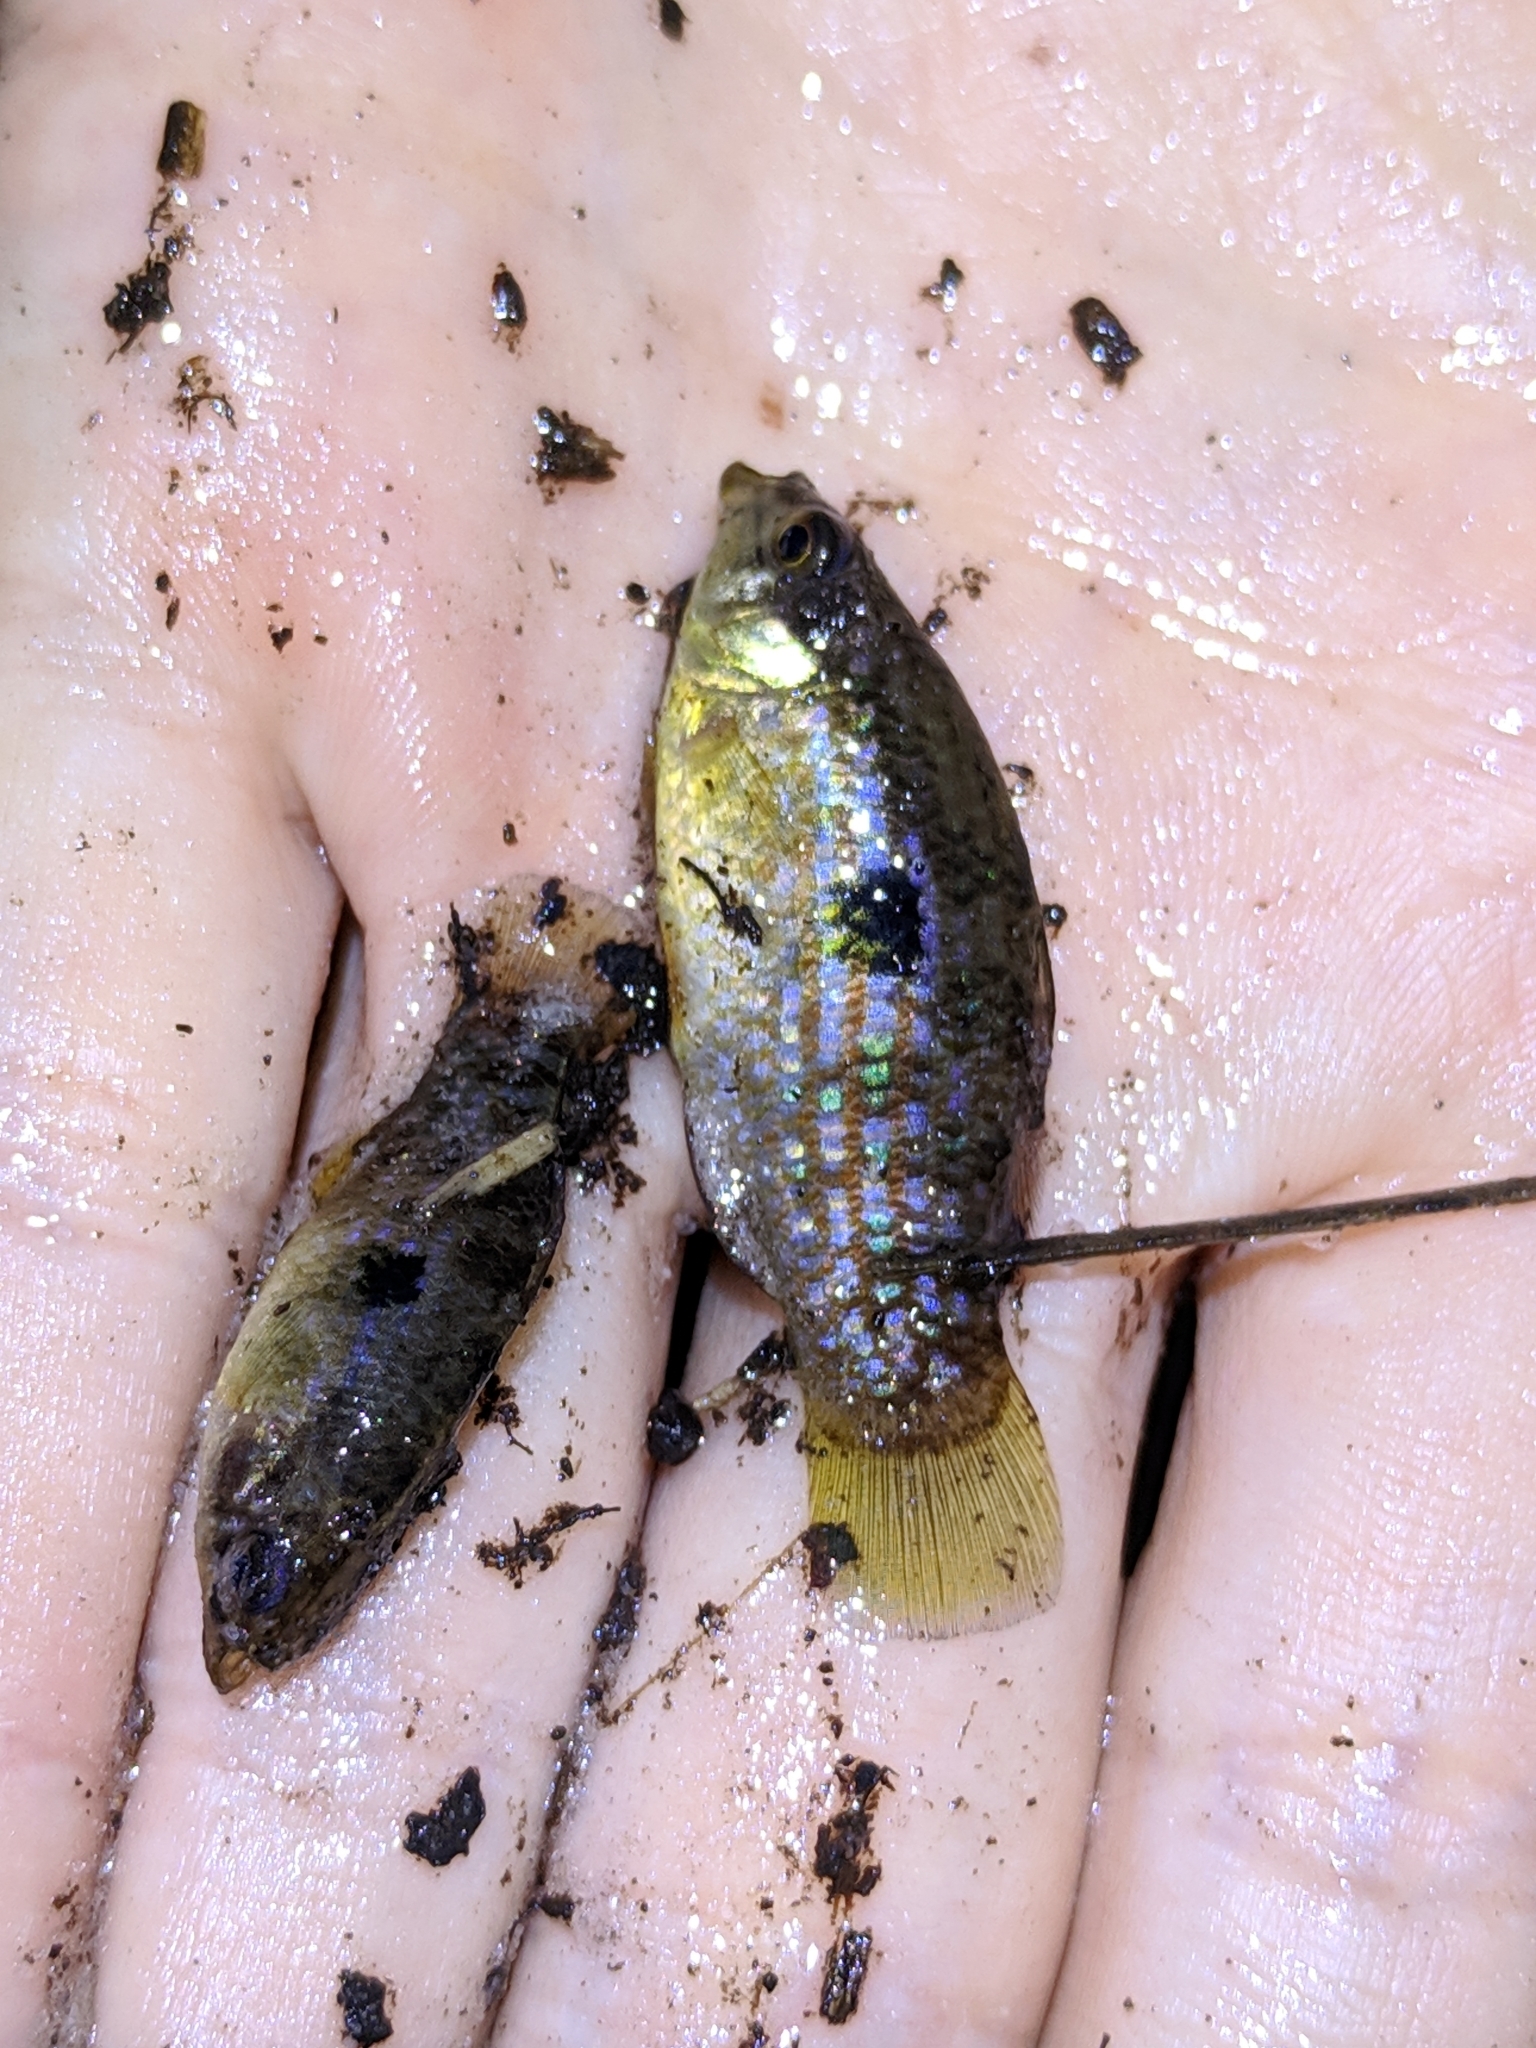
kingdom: Animalia
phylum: Chordata
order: Cyprinodontiformes
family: Cyprinodontidae
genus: Jordanella
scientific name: Jordanella floridae
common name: Flagfish
